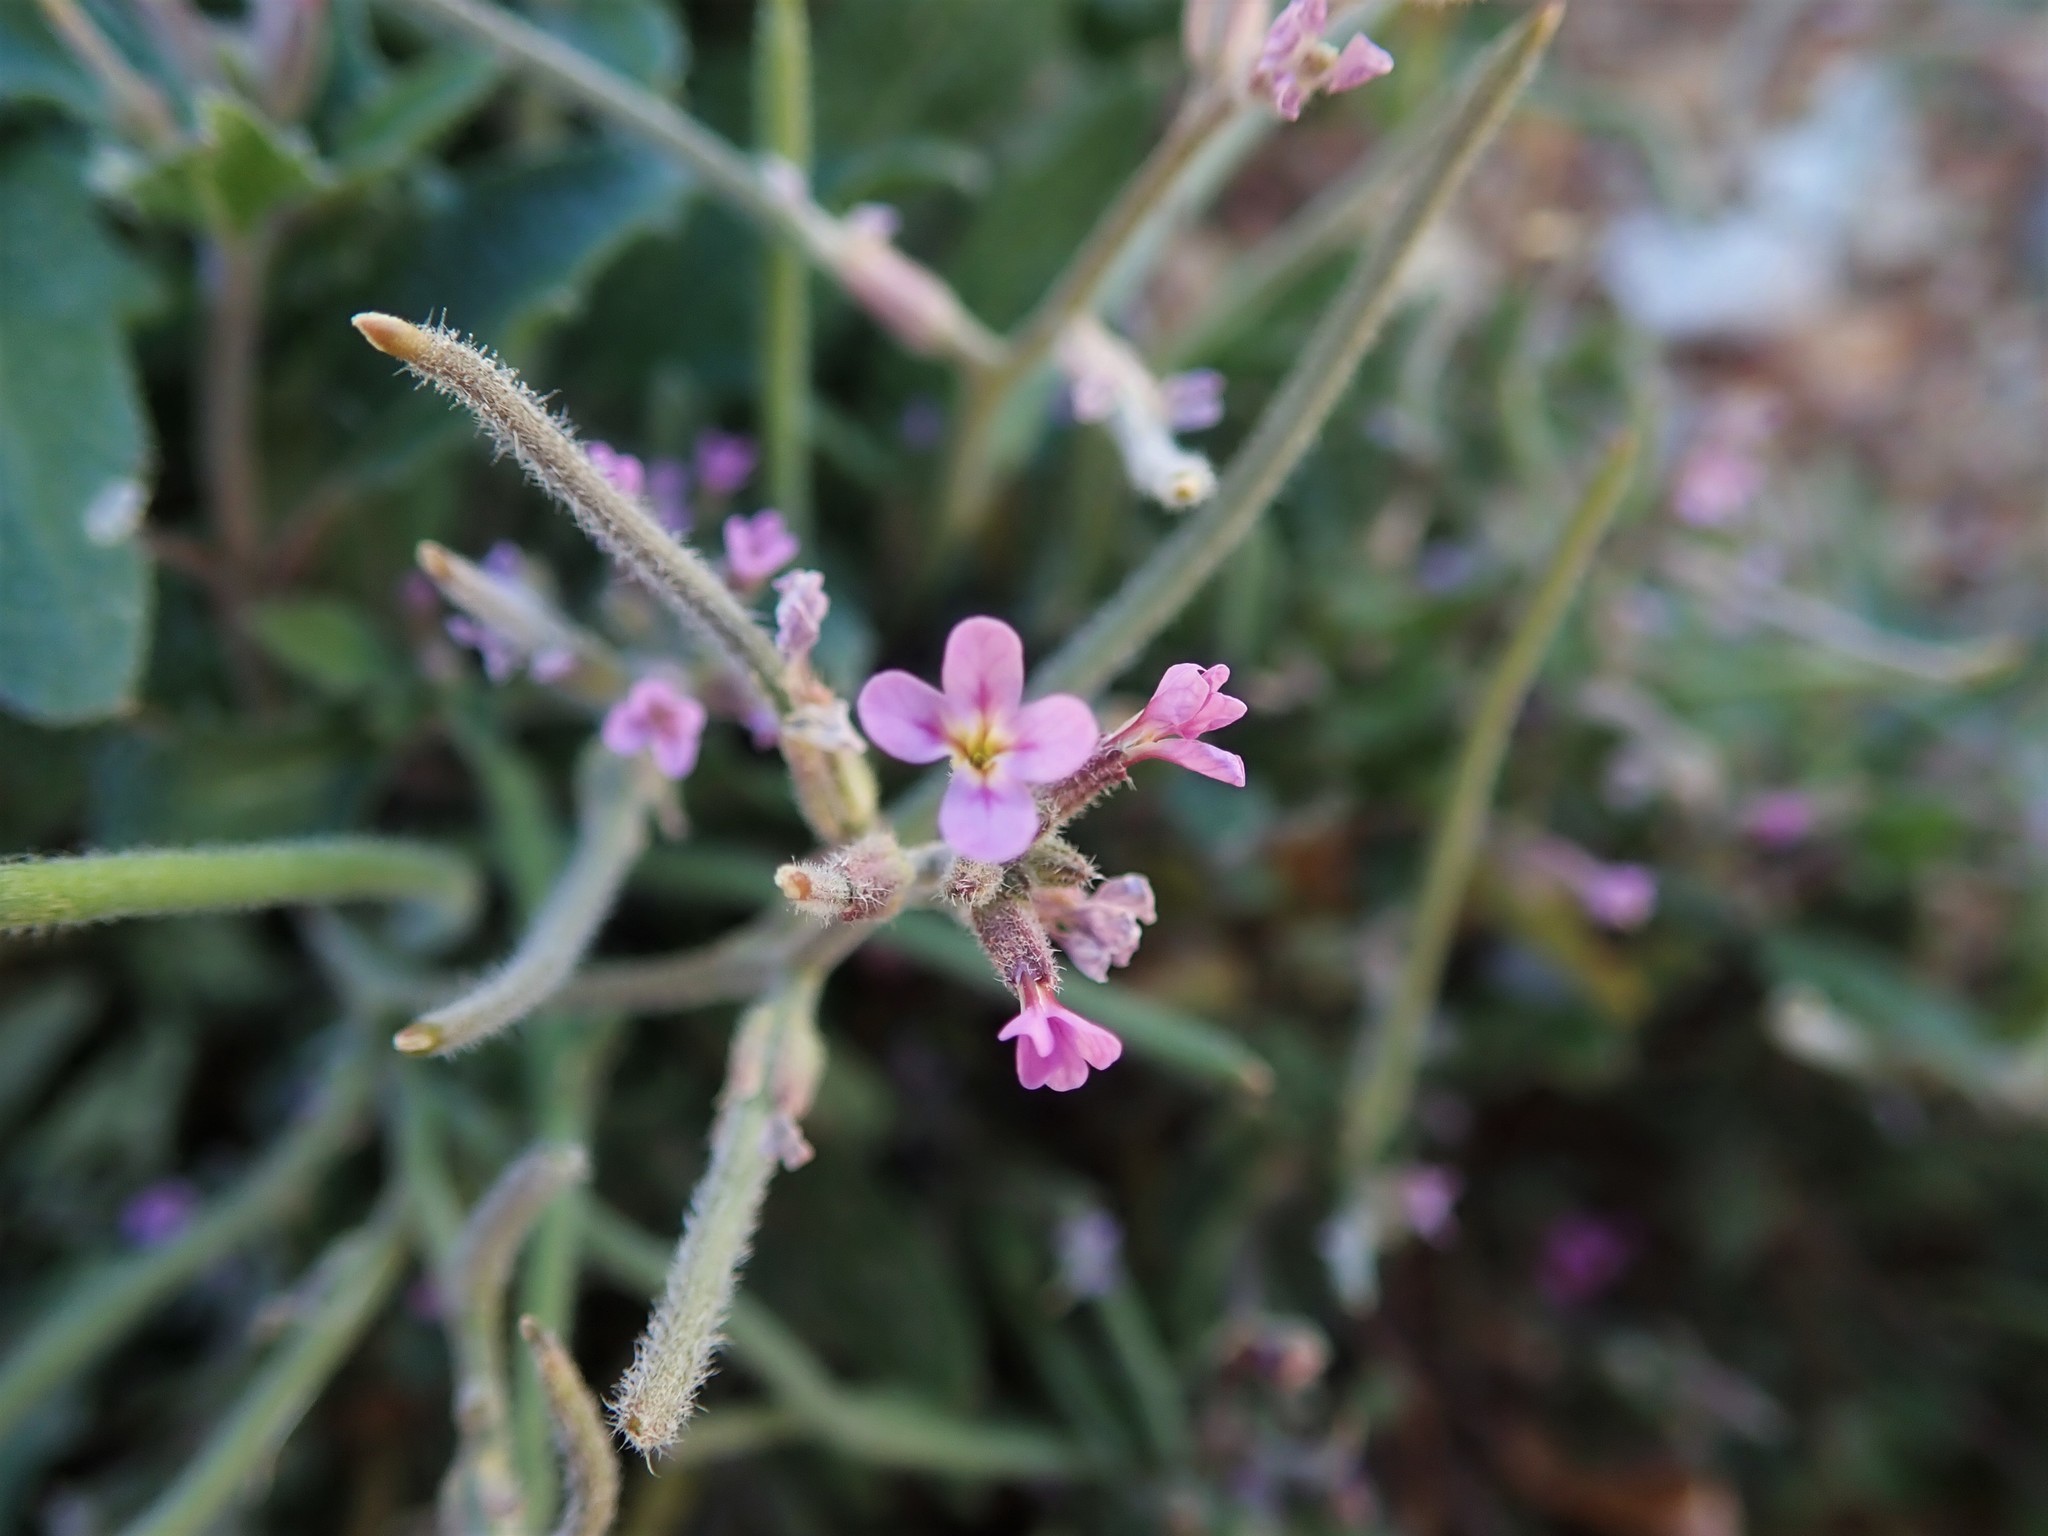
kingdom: Plantae
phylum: Tracheophyta
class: Magnoliopsida
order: Brassicales
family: Brassicaceae
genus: Strigosella
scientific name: Strigosella africana
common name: African mustard
